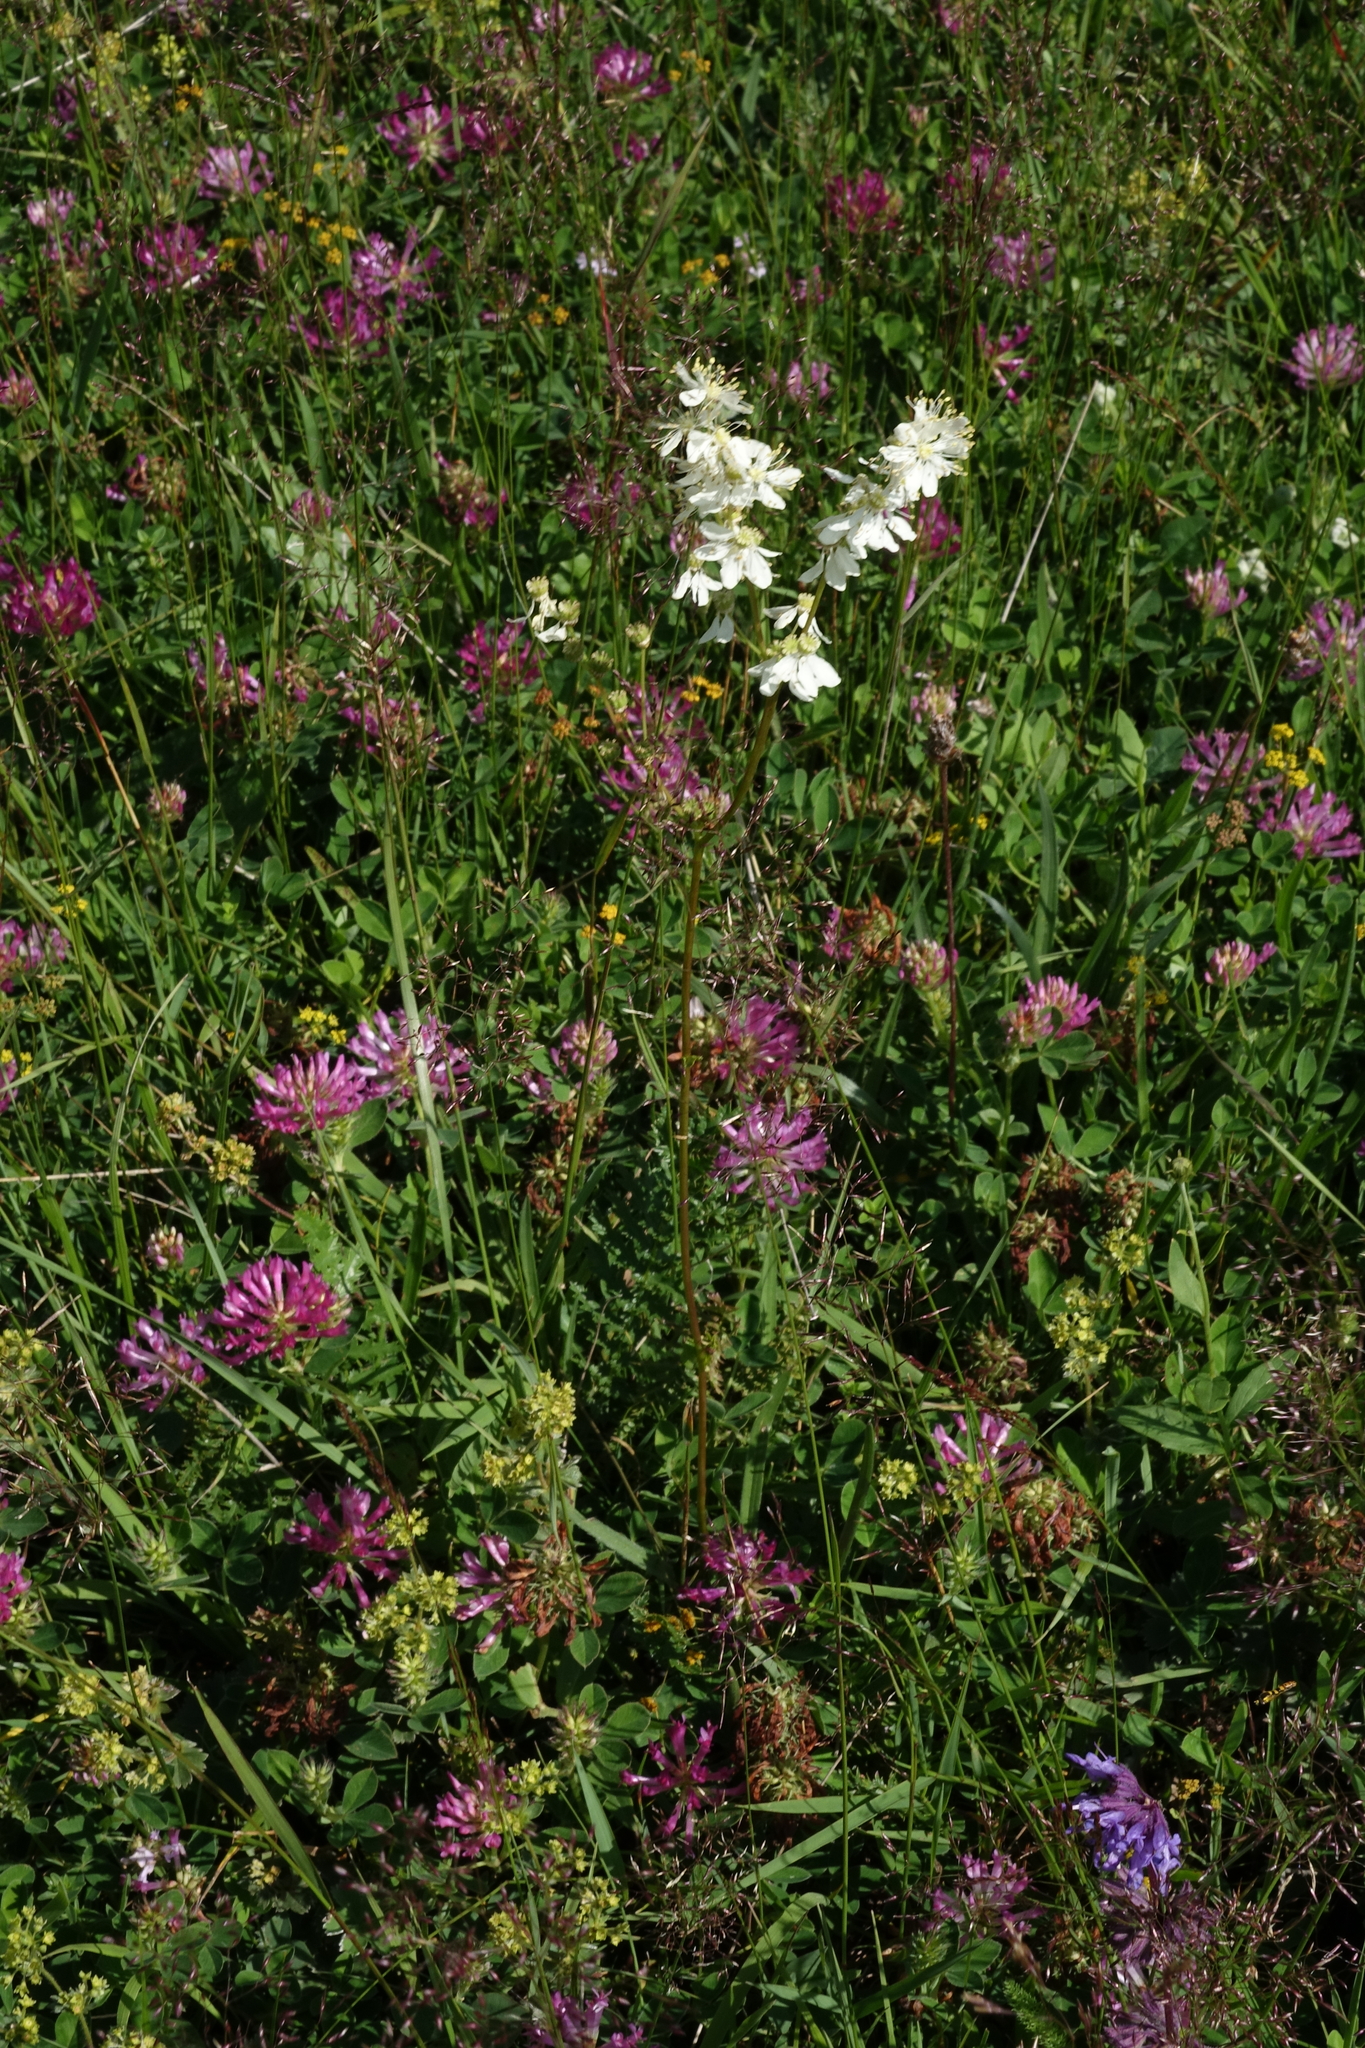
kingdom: Plantae
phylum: Tracheophyta
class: Magnoliopsida
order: Rosales
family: Rosaceae
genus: Filipendula
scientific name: Filipendula vulgaris
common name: Dropwort
